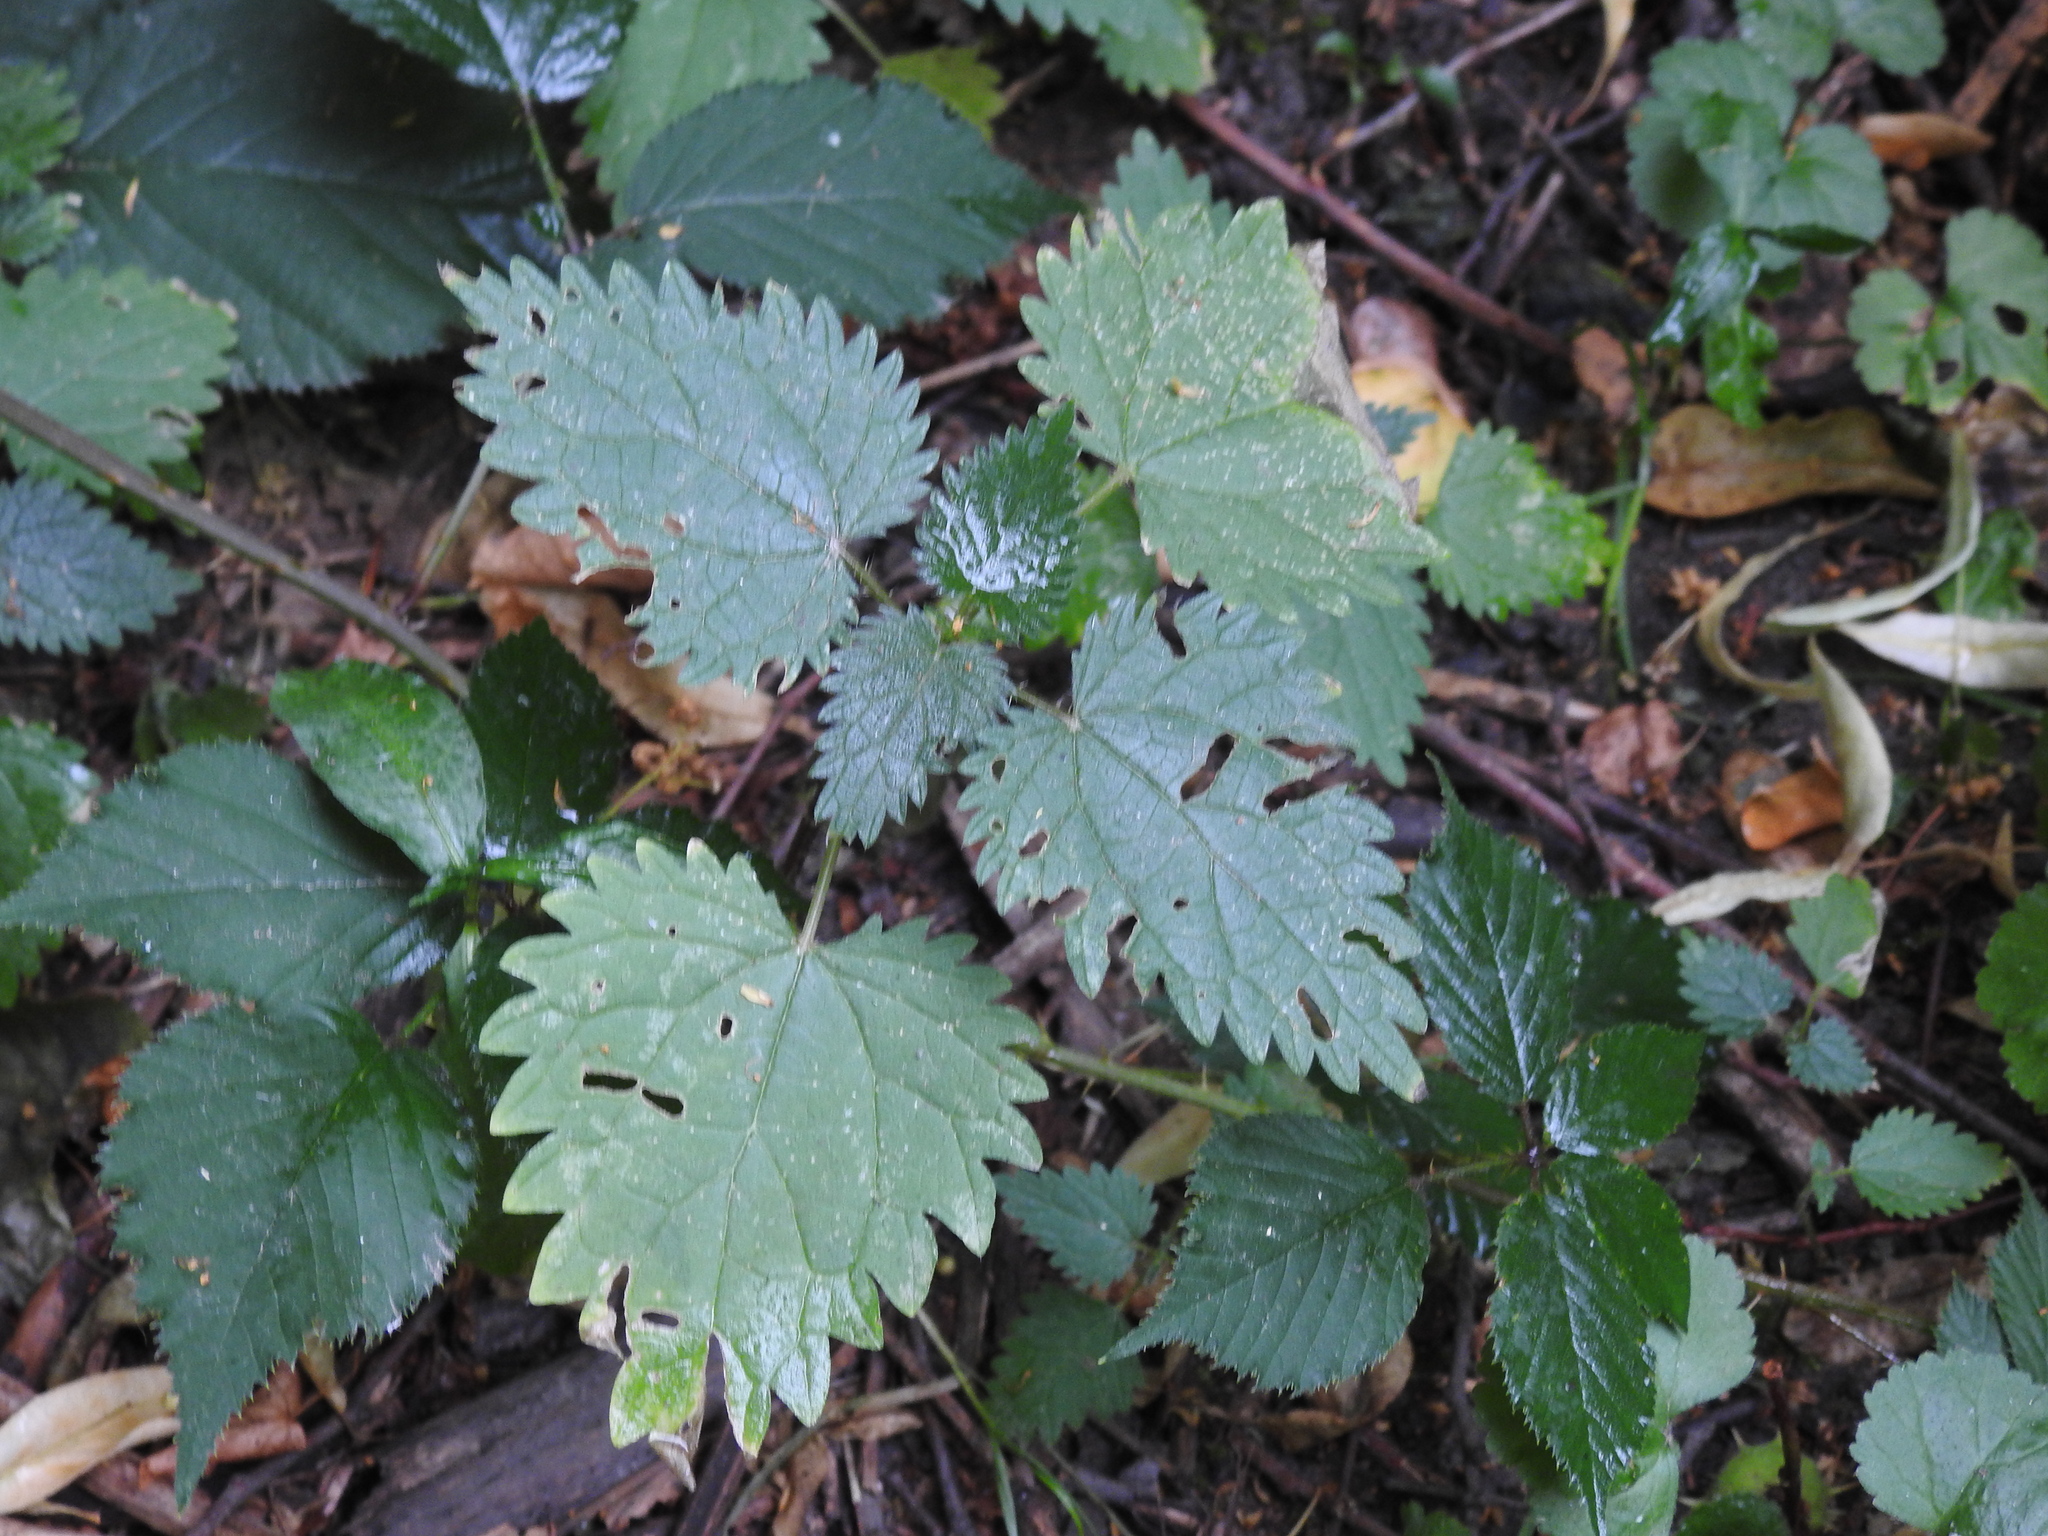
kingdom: Plantae
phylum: Tracheophyta
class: Magnoliopsida
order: Rosales
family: Urticaceae
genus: Urtica
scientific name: Urtica dioica
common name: Common nettle
